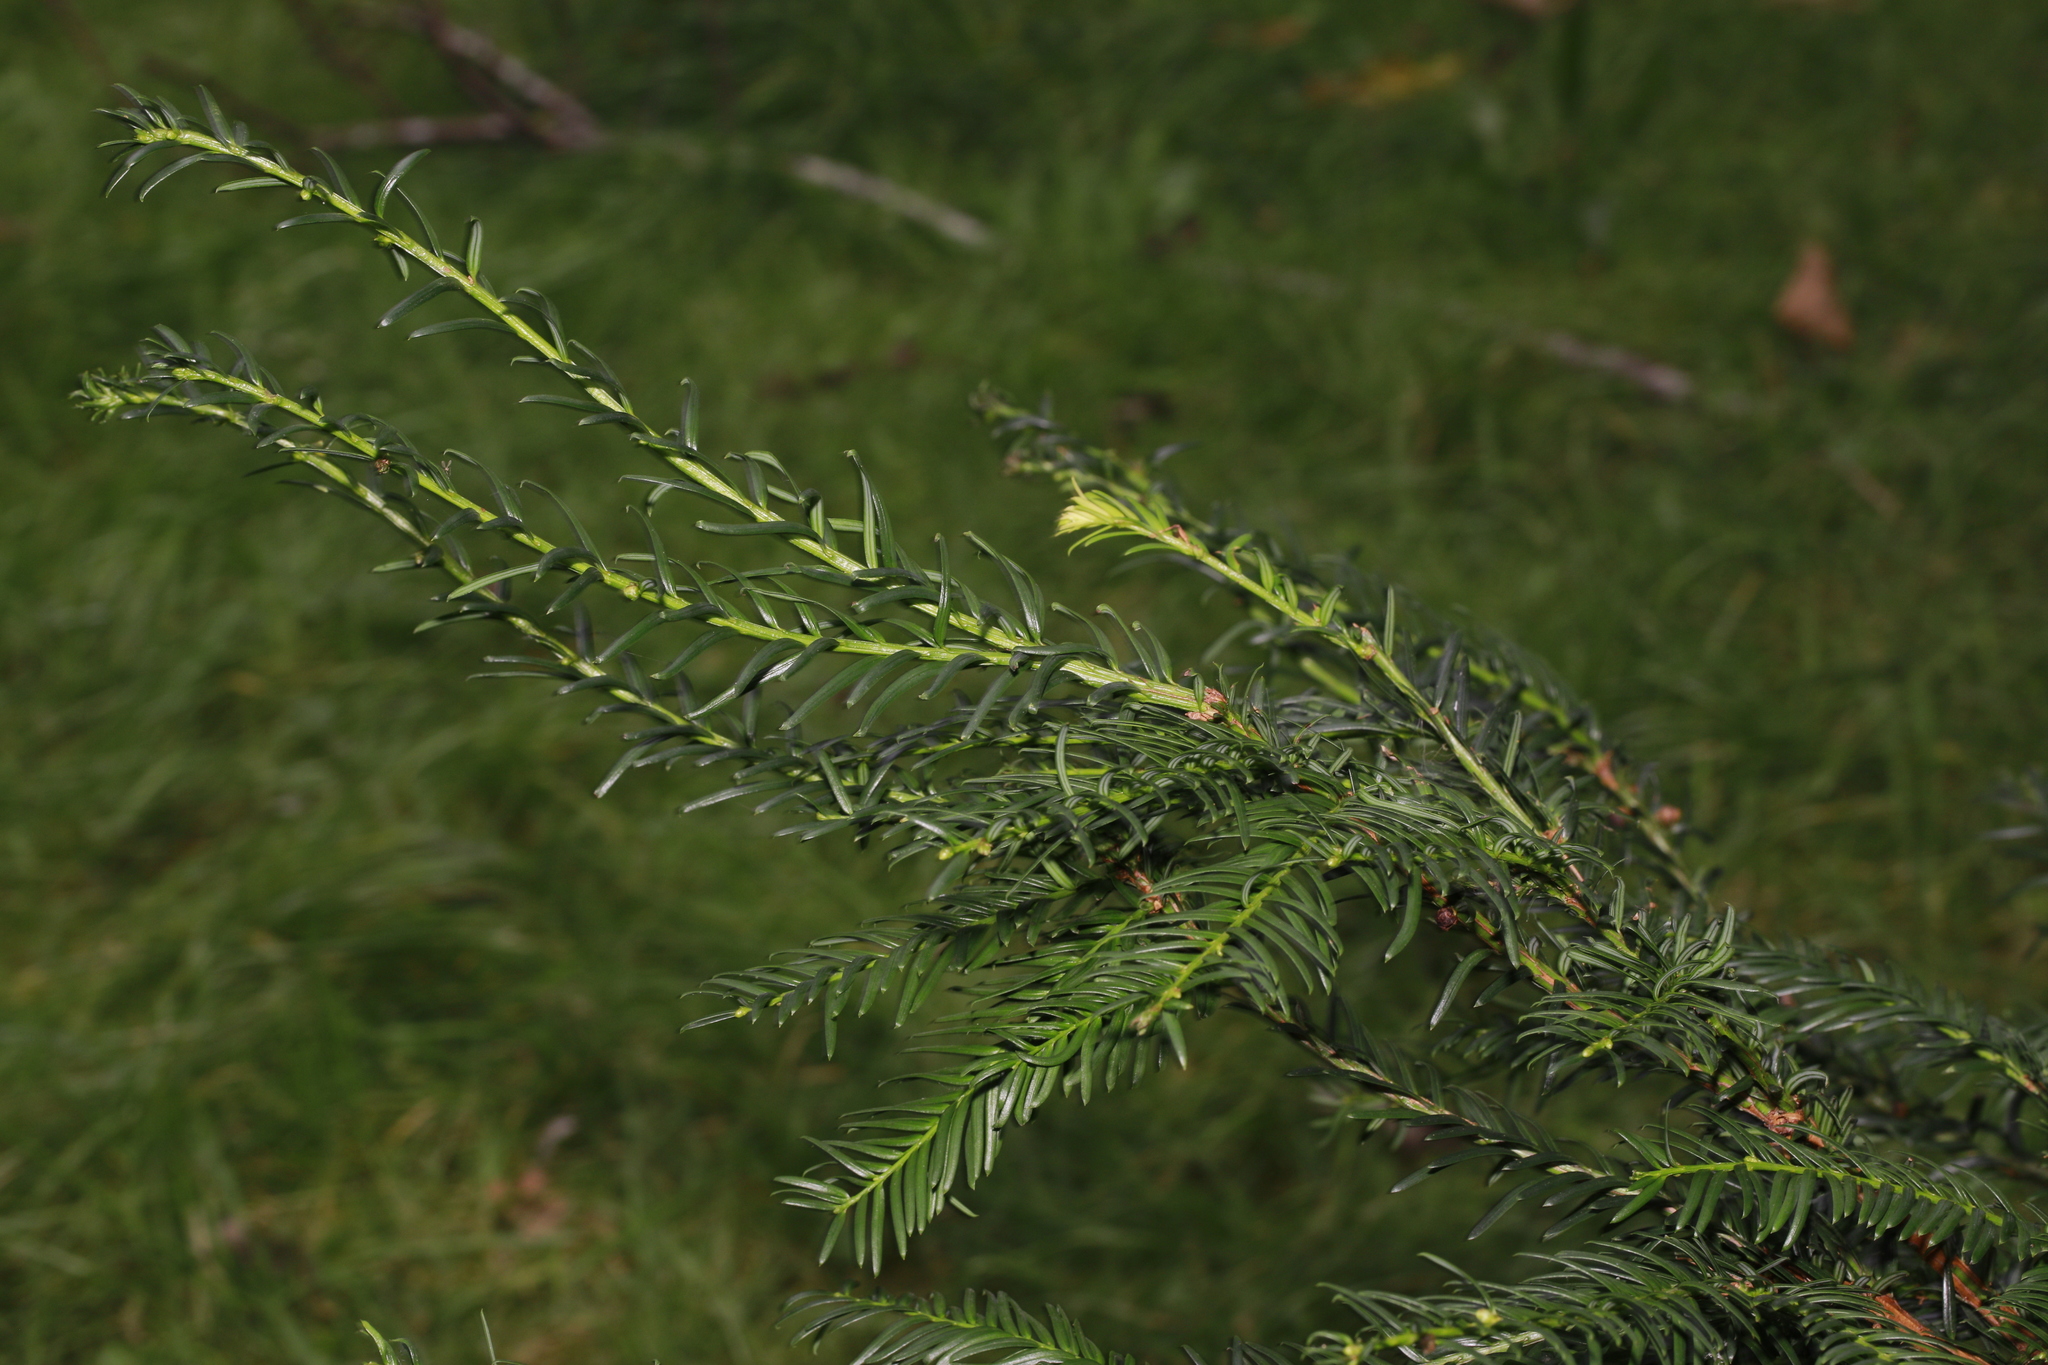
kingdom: Plantae
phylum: Tracheophyta
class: Pinopsida
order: Pinales
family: Taxaceae
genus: Taxus
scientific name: Taxus baccata
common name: Yew
